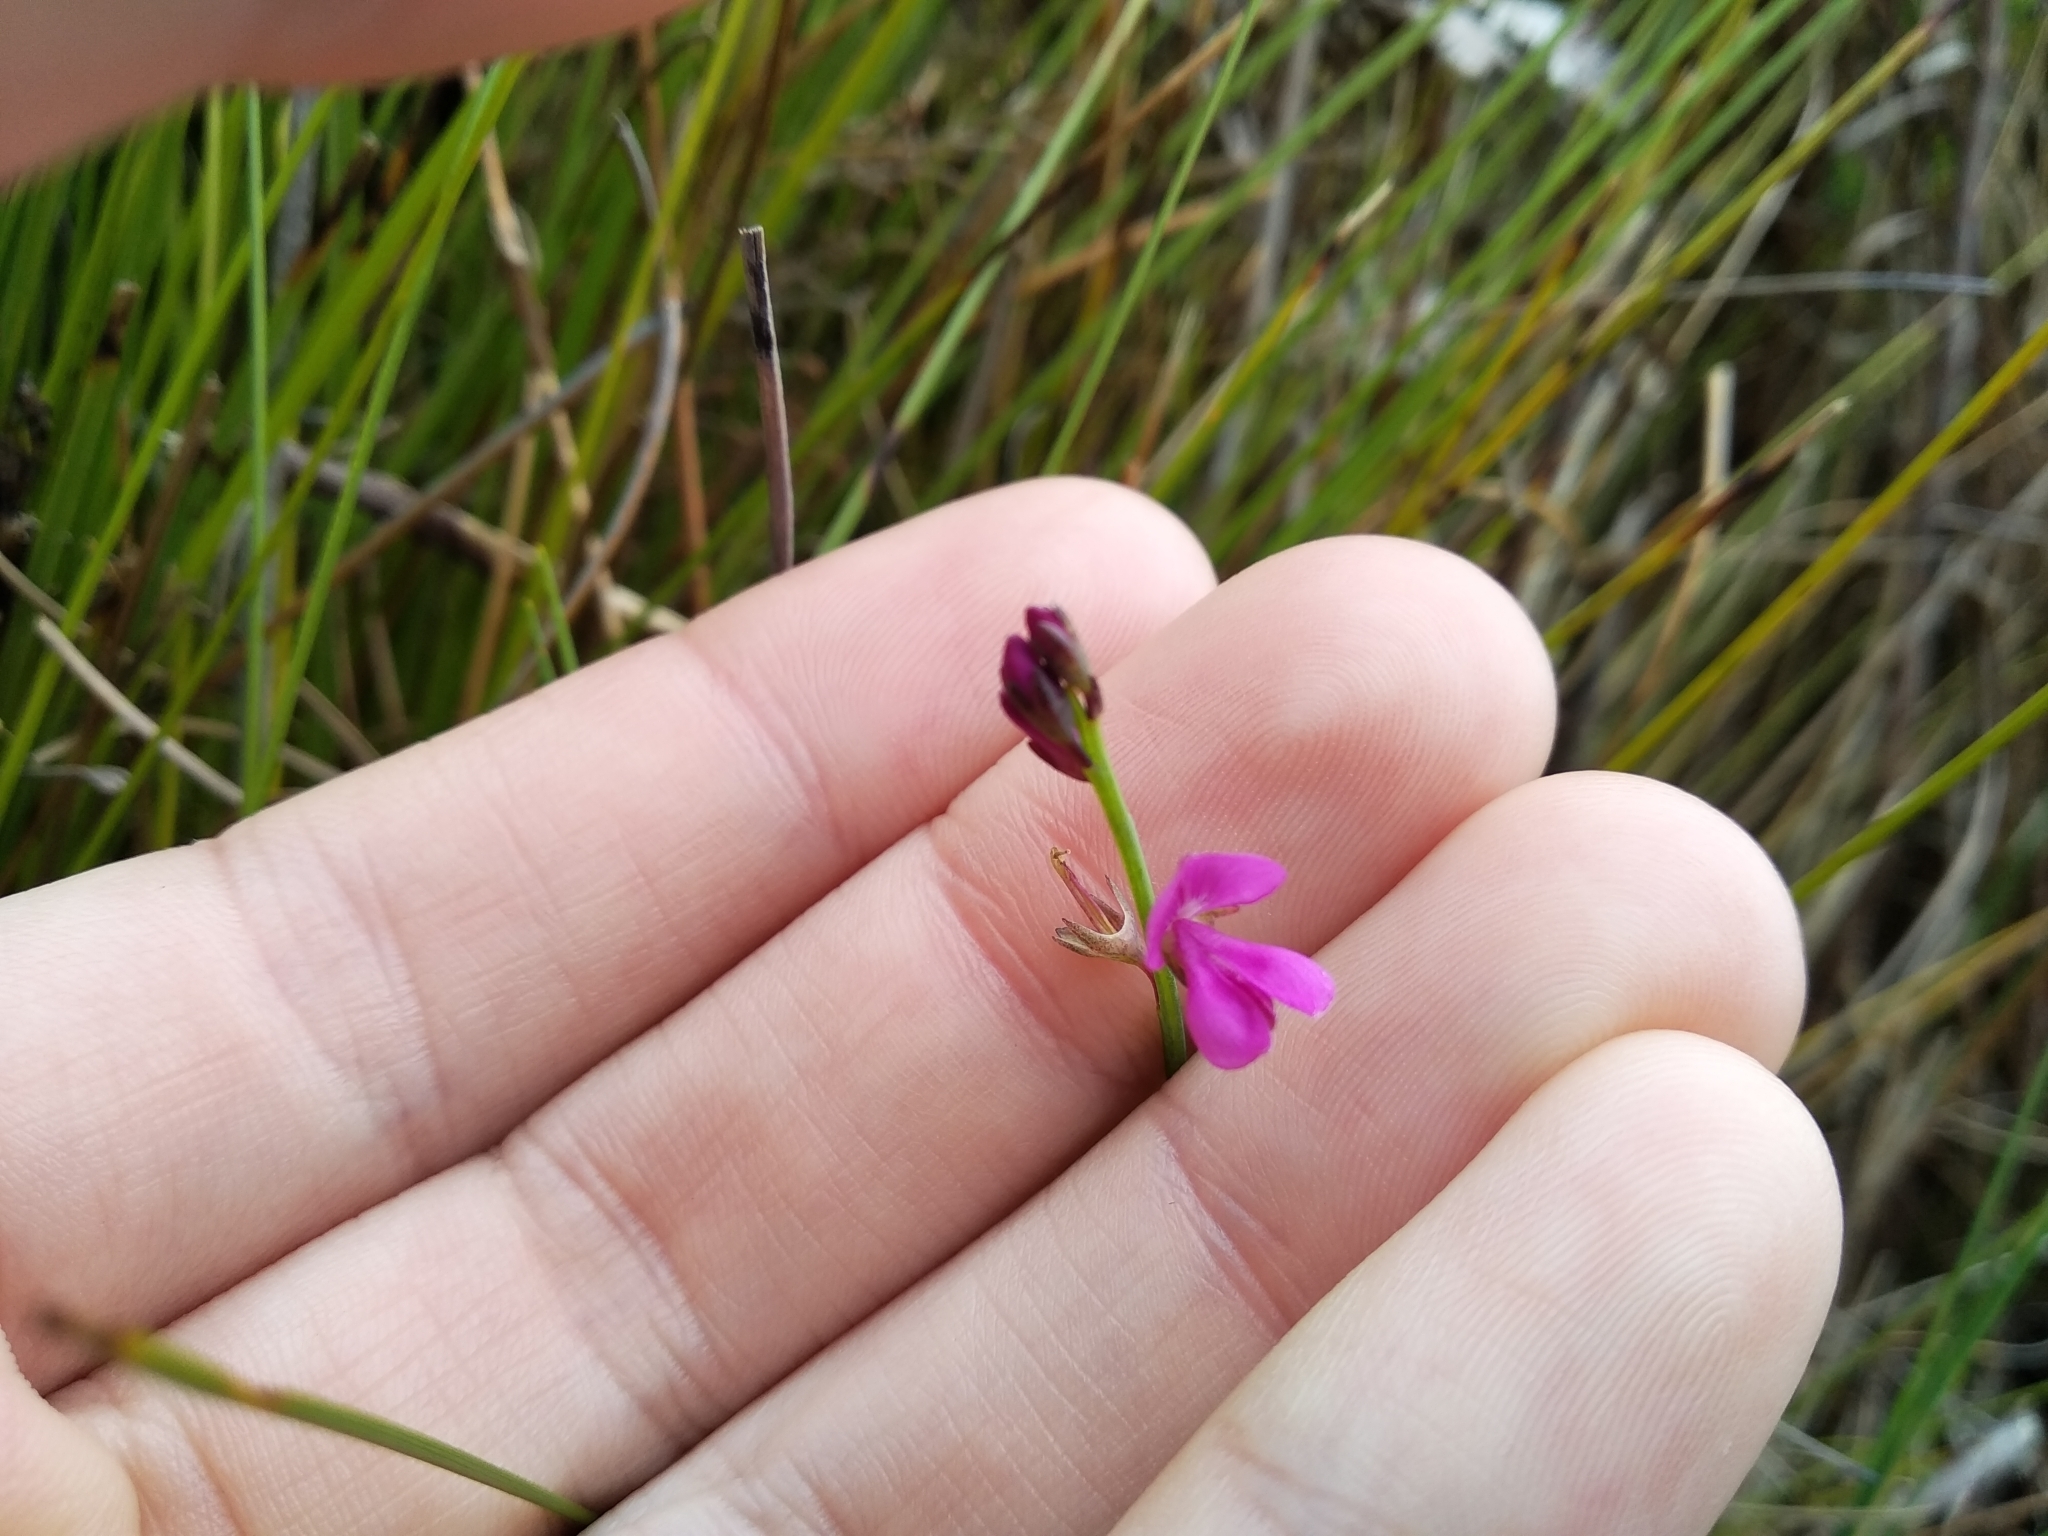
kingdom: Plantae
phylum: Tracheophyta
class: Magnoliopsida
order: Fabales
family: Fabaceae
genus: Indigofera
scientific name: Indigofera ionii
